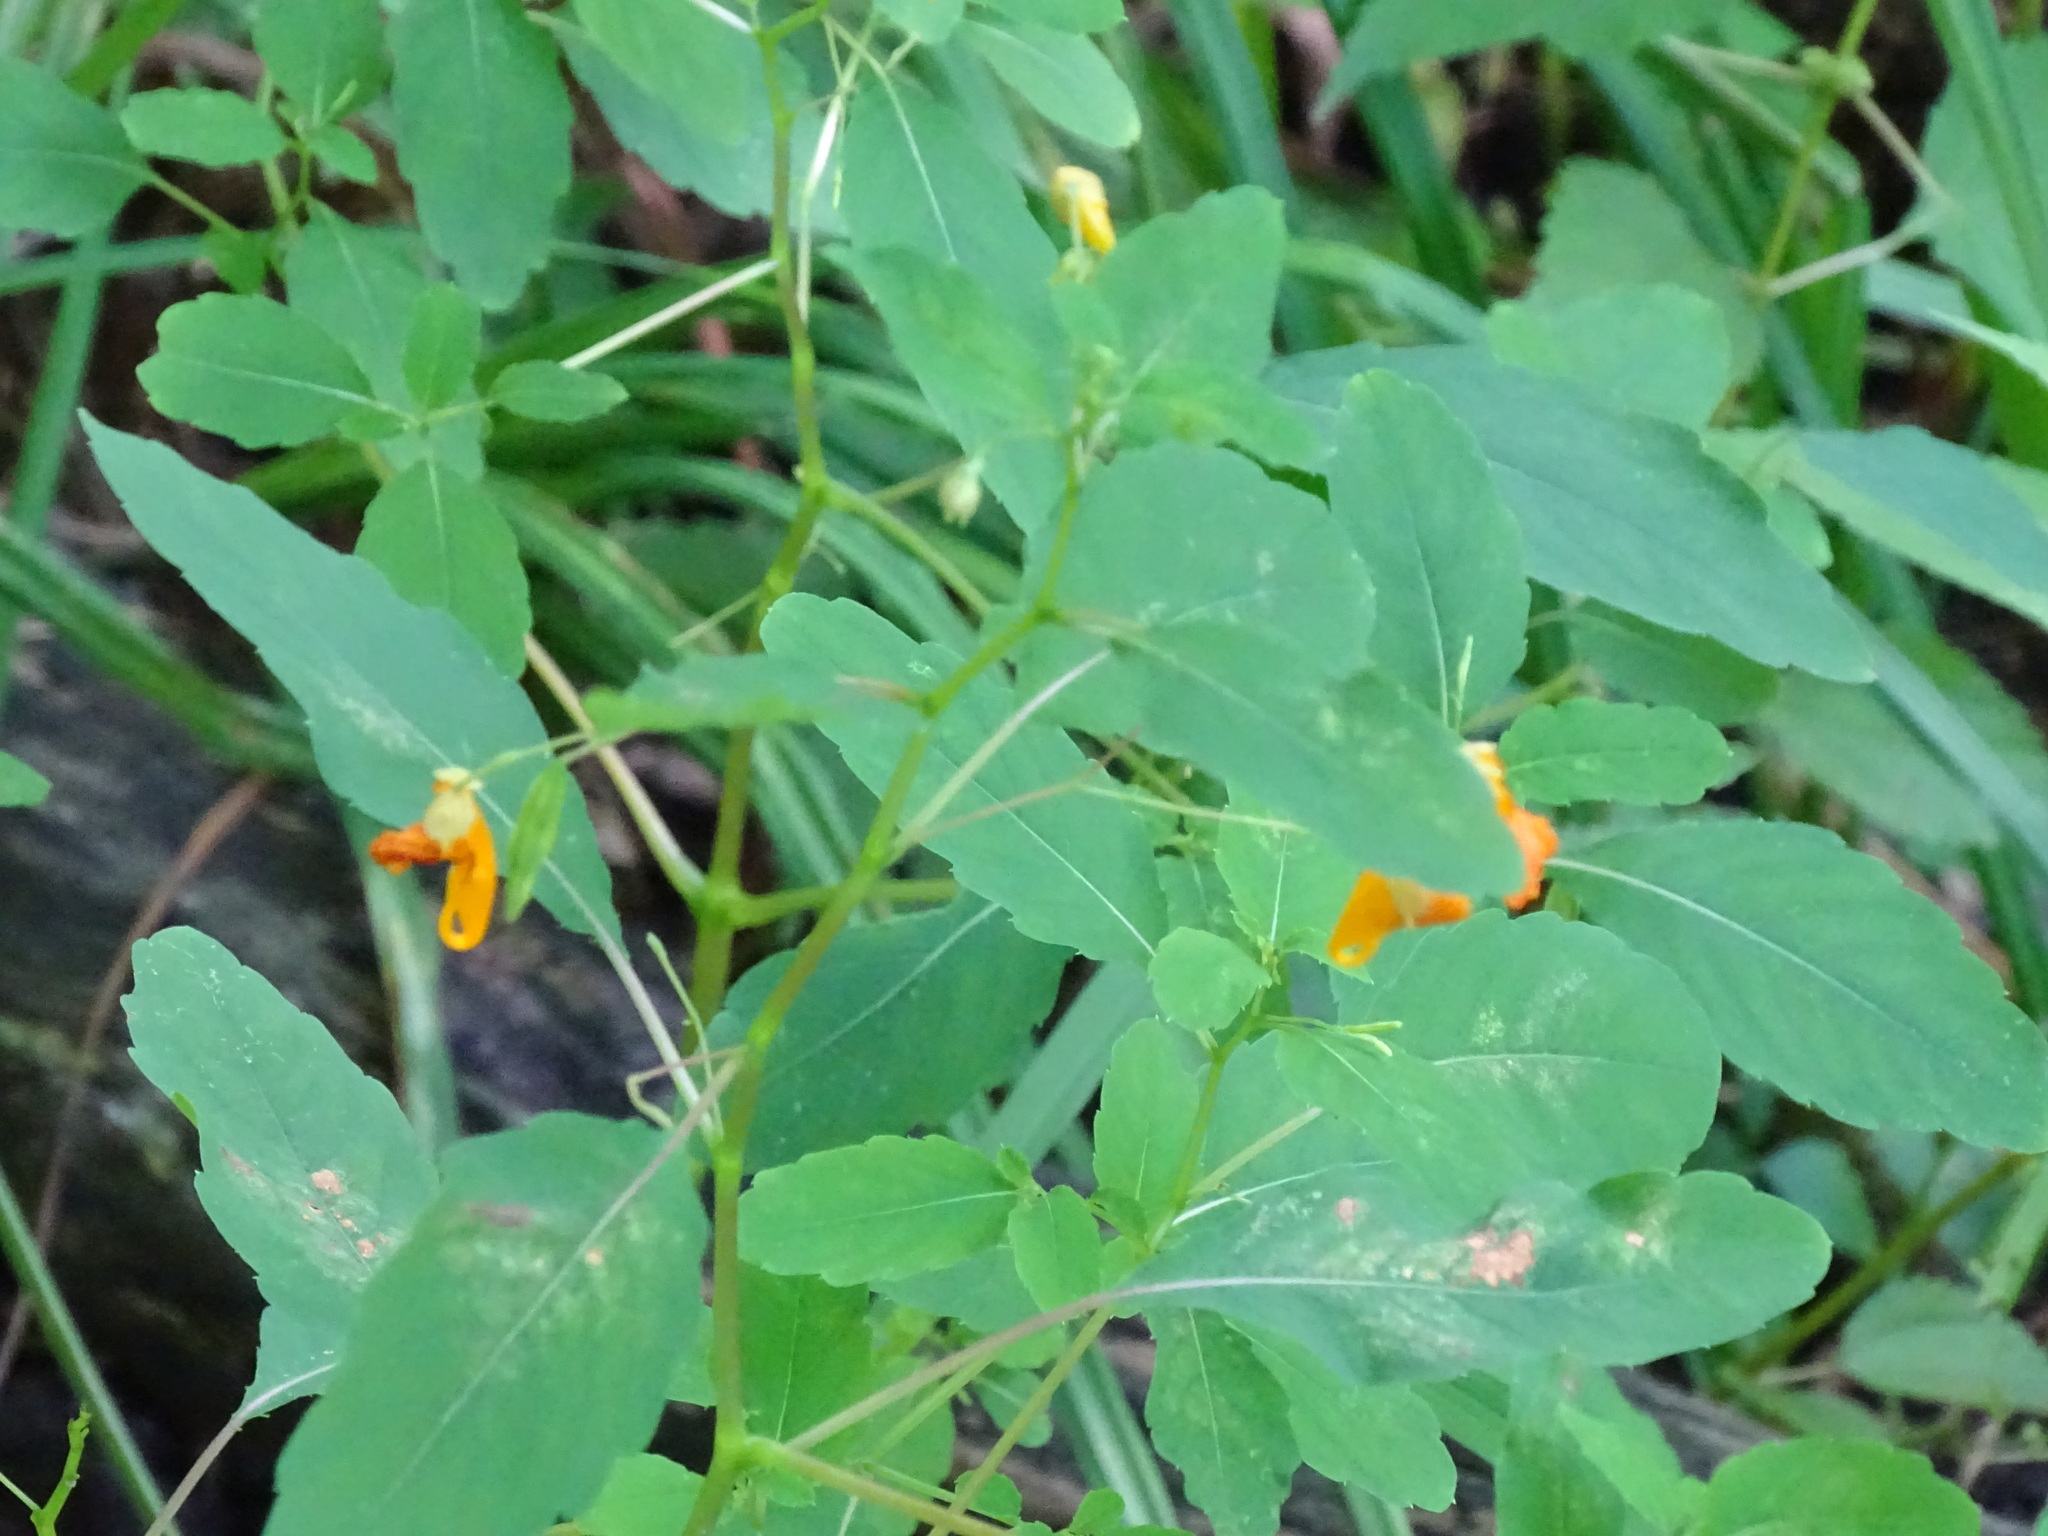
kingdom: Plantae
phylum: Tracheophyta
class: Magnoliopsida
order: Ericales
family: Balsaminaceae
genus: Impatiens
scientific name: Impatiens capensis
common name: Orange balsam
